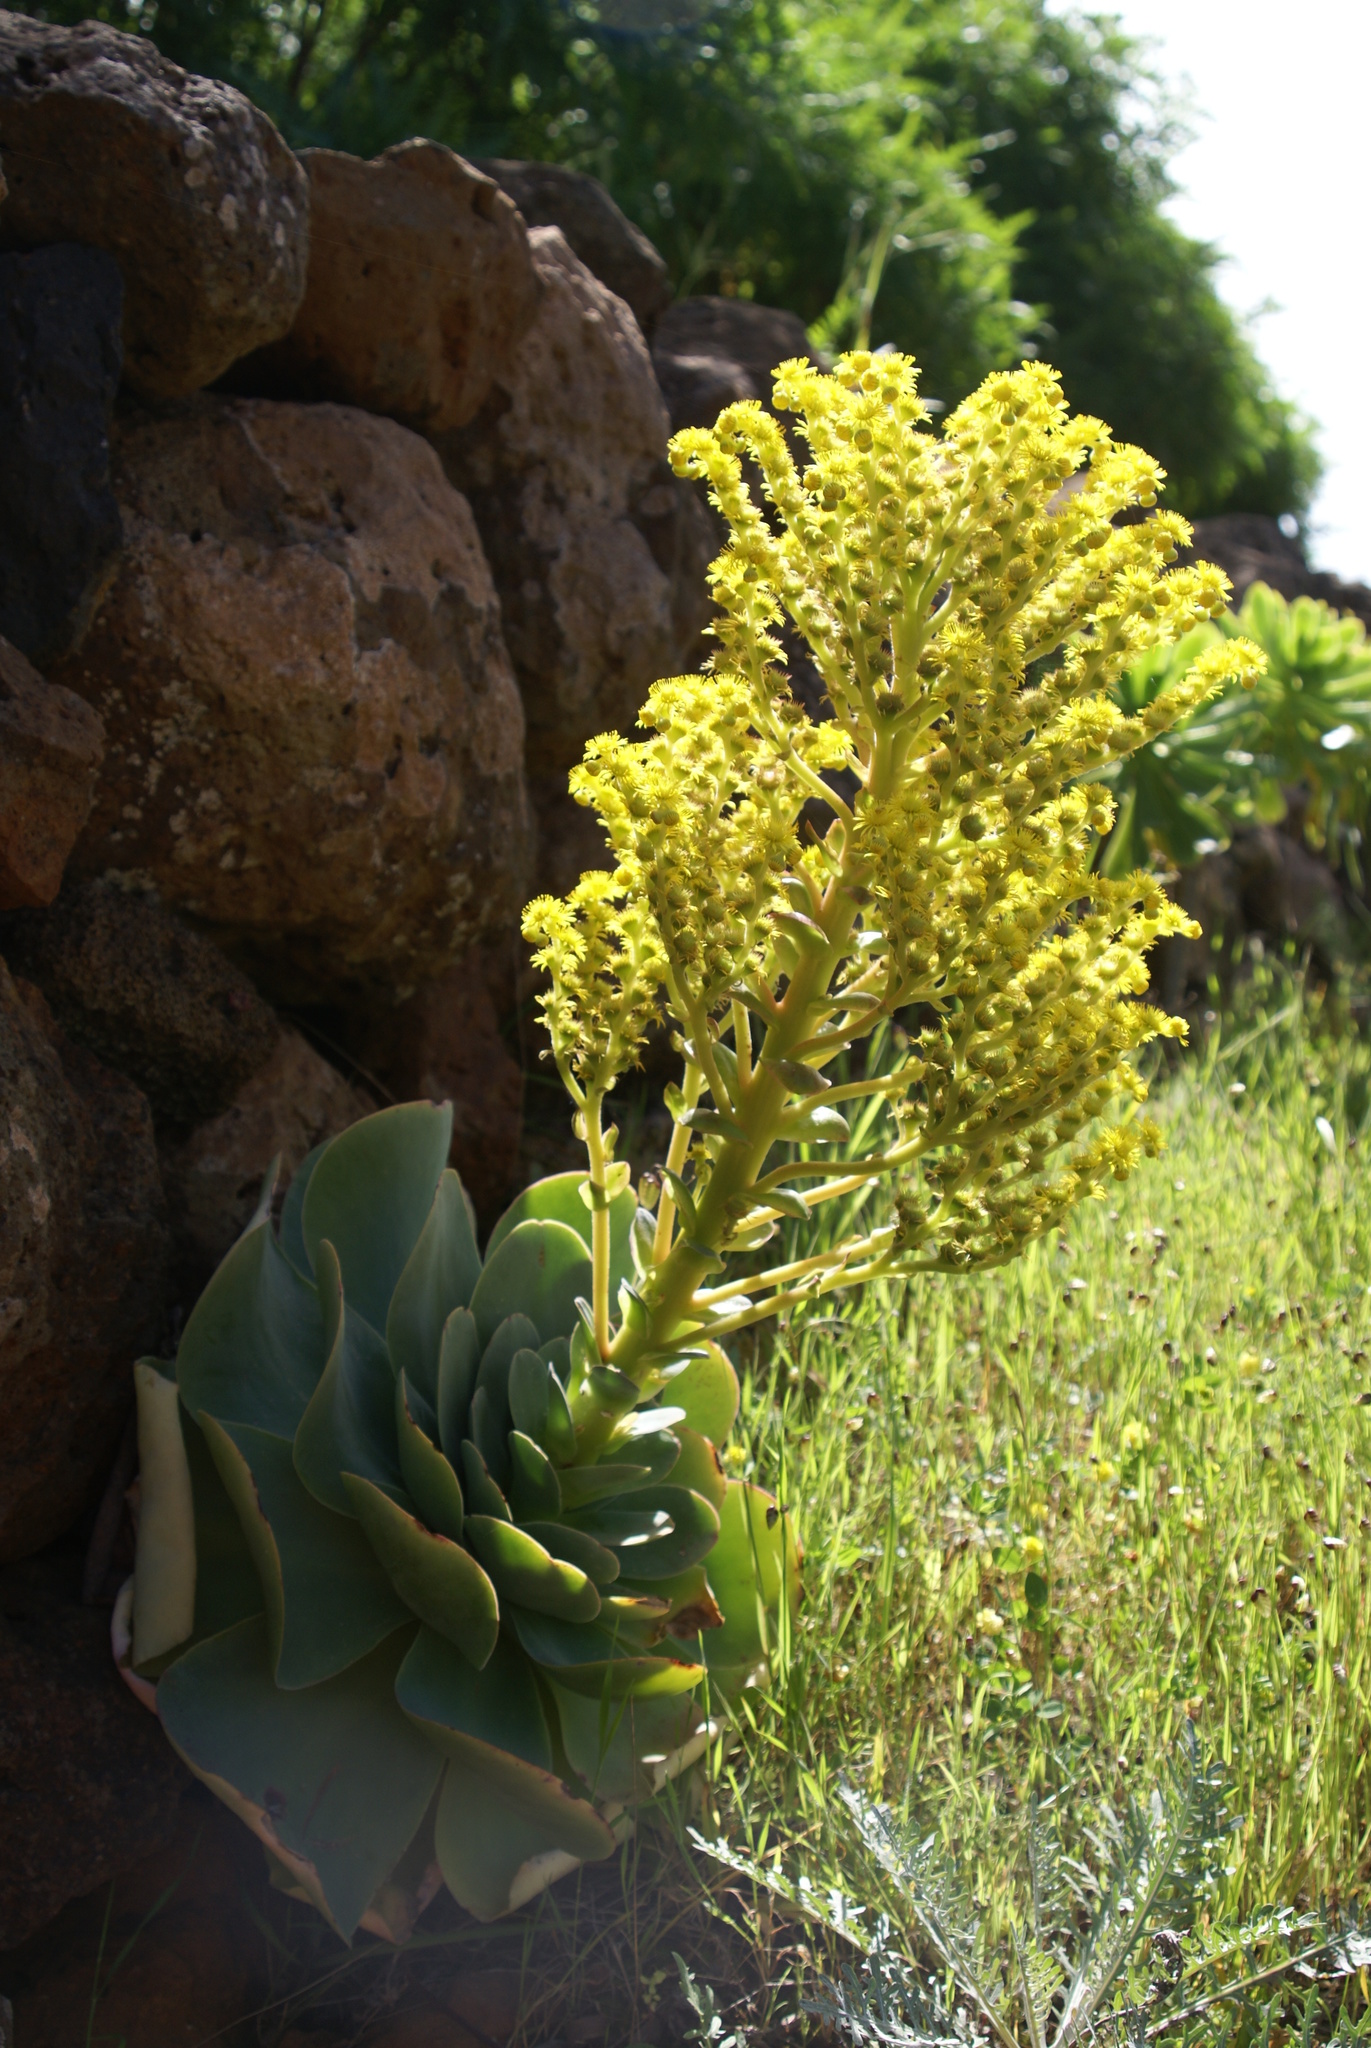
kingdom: Plantae
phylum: Tracheophyta
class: Magnoliopsida
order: Saxifragales
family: Crassulaceae
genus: Aeonium
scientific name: Aeonium diplocyclum
